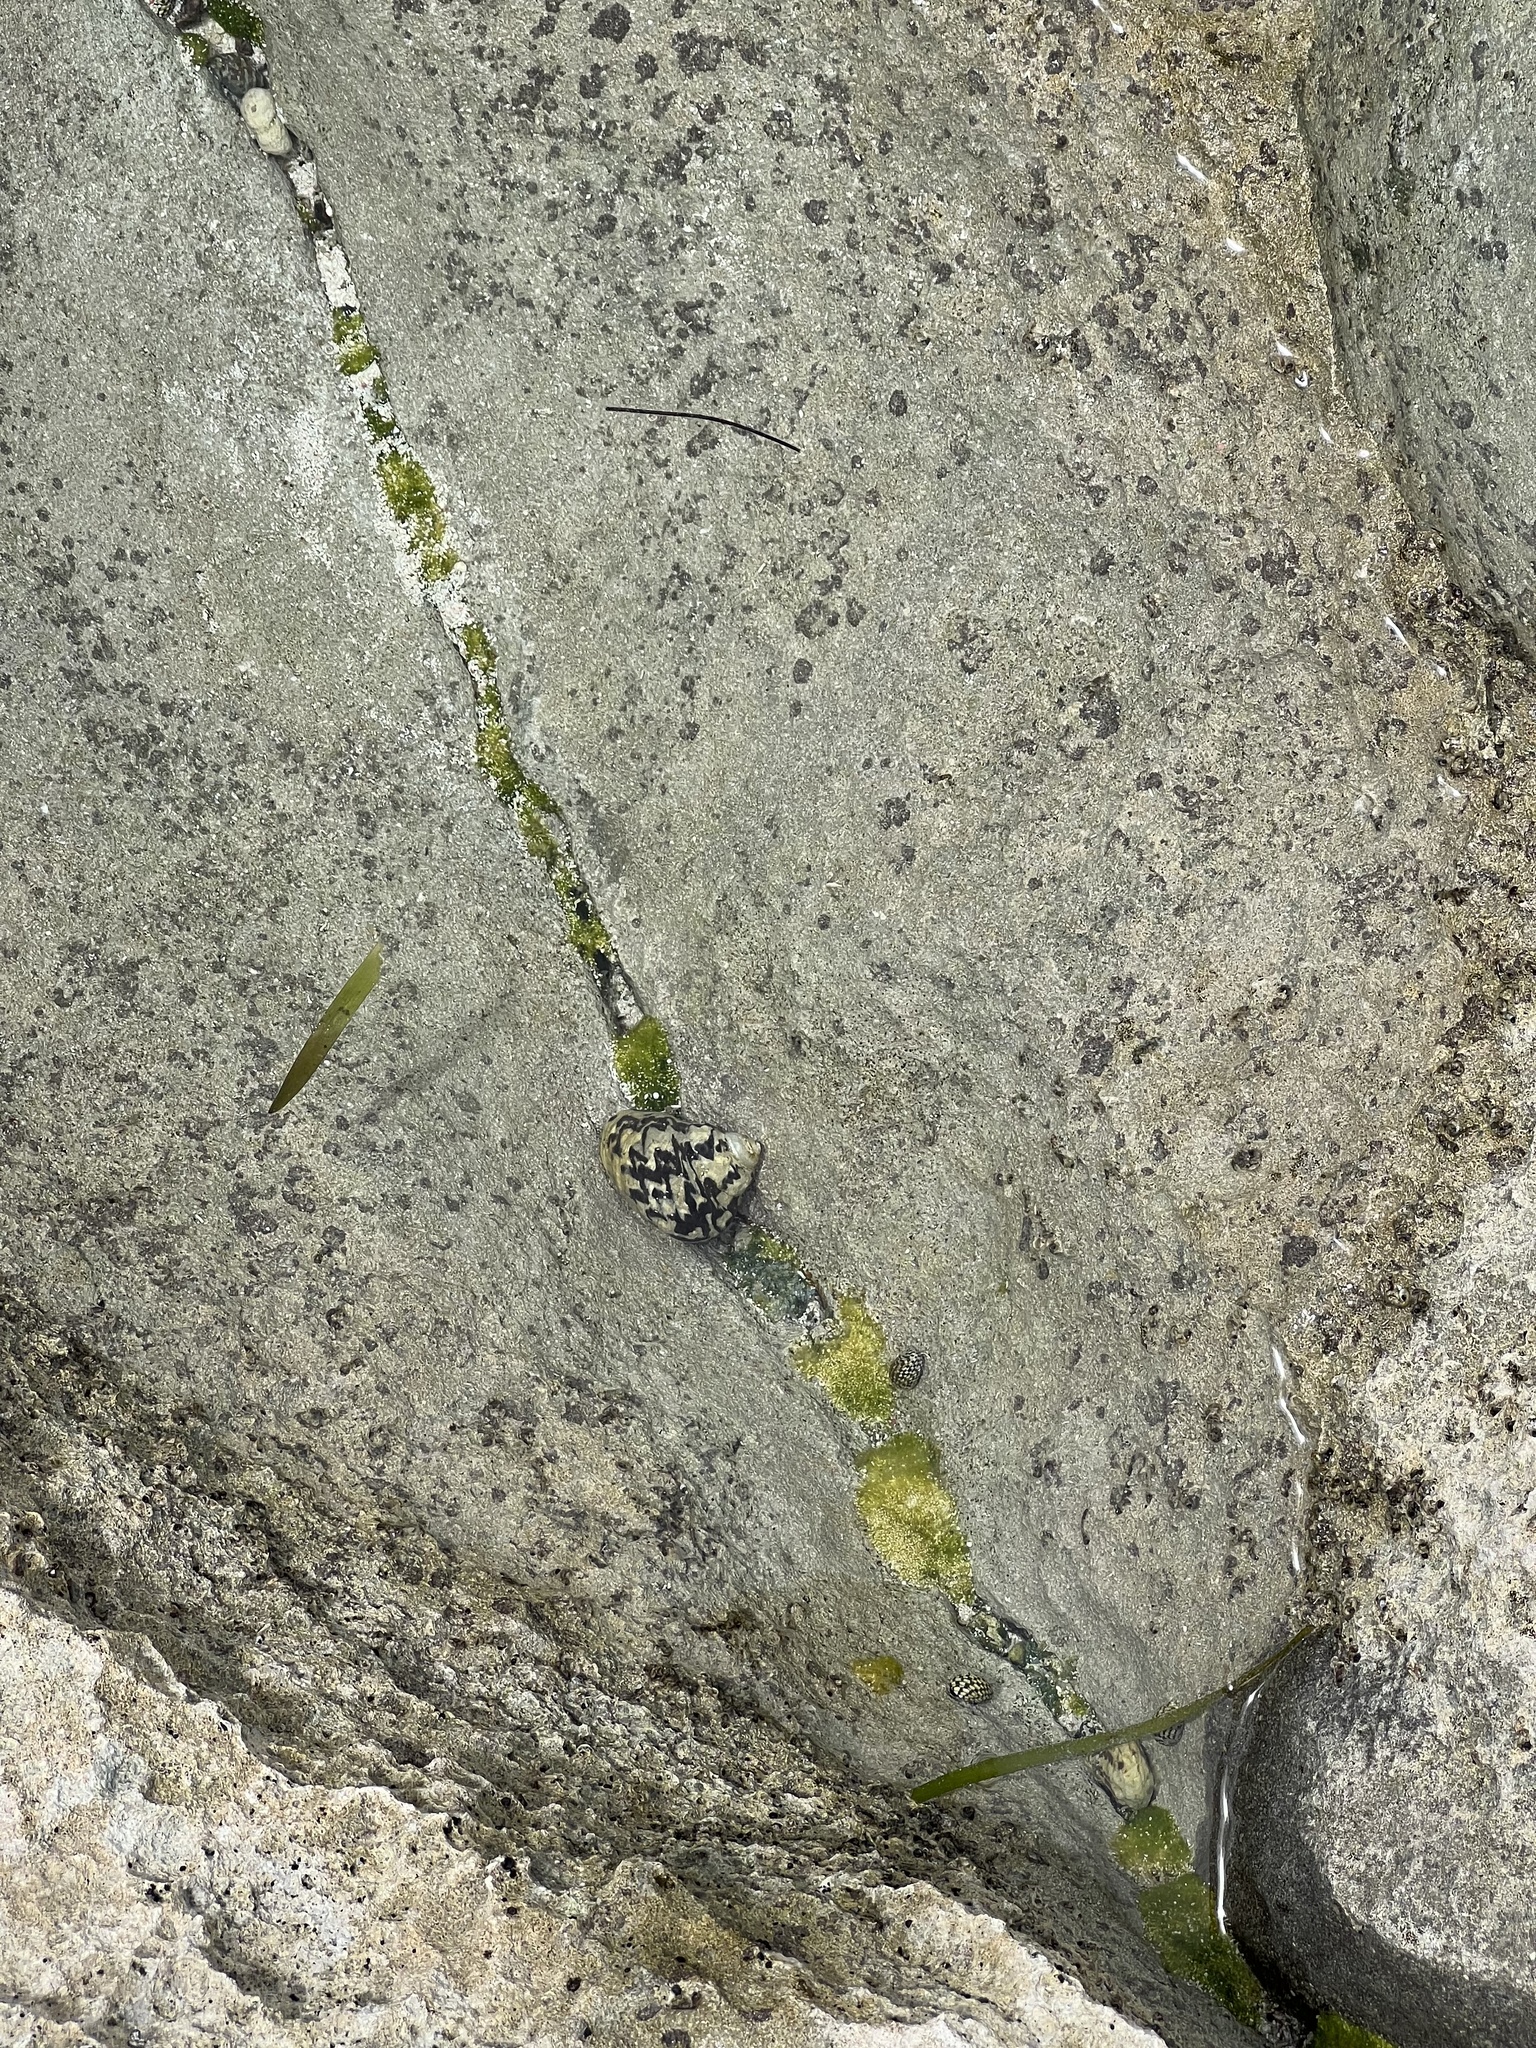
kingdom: Animalia
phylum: Mollusca
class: Gastropoda
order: Trochida
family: Tegulidae
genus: Cittarium
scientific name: Cittarium pica
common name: West indian topshell
